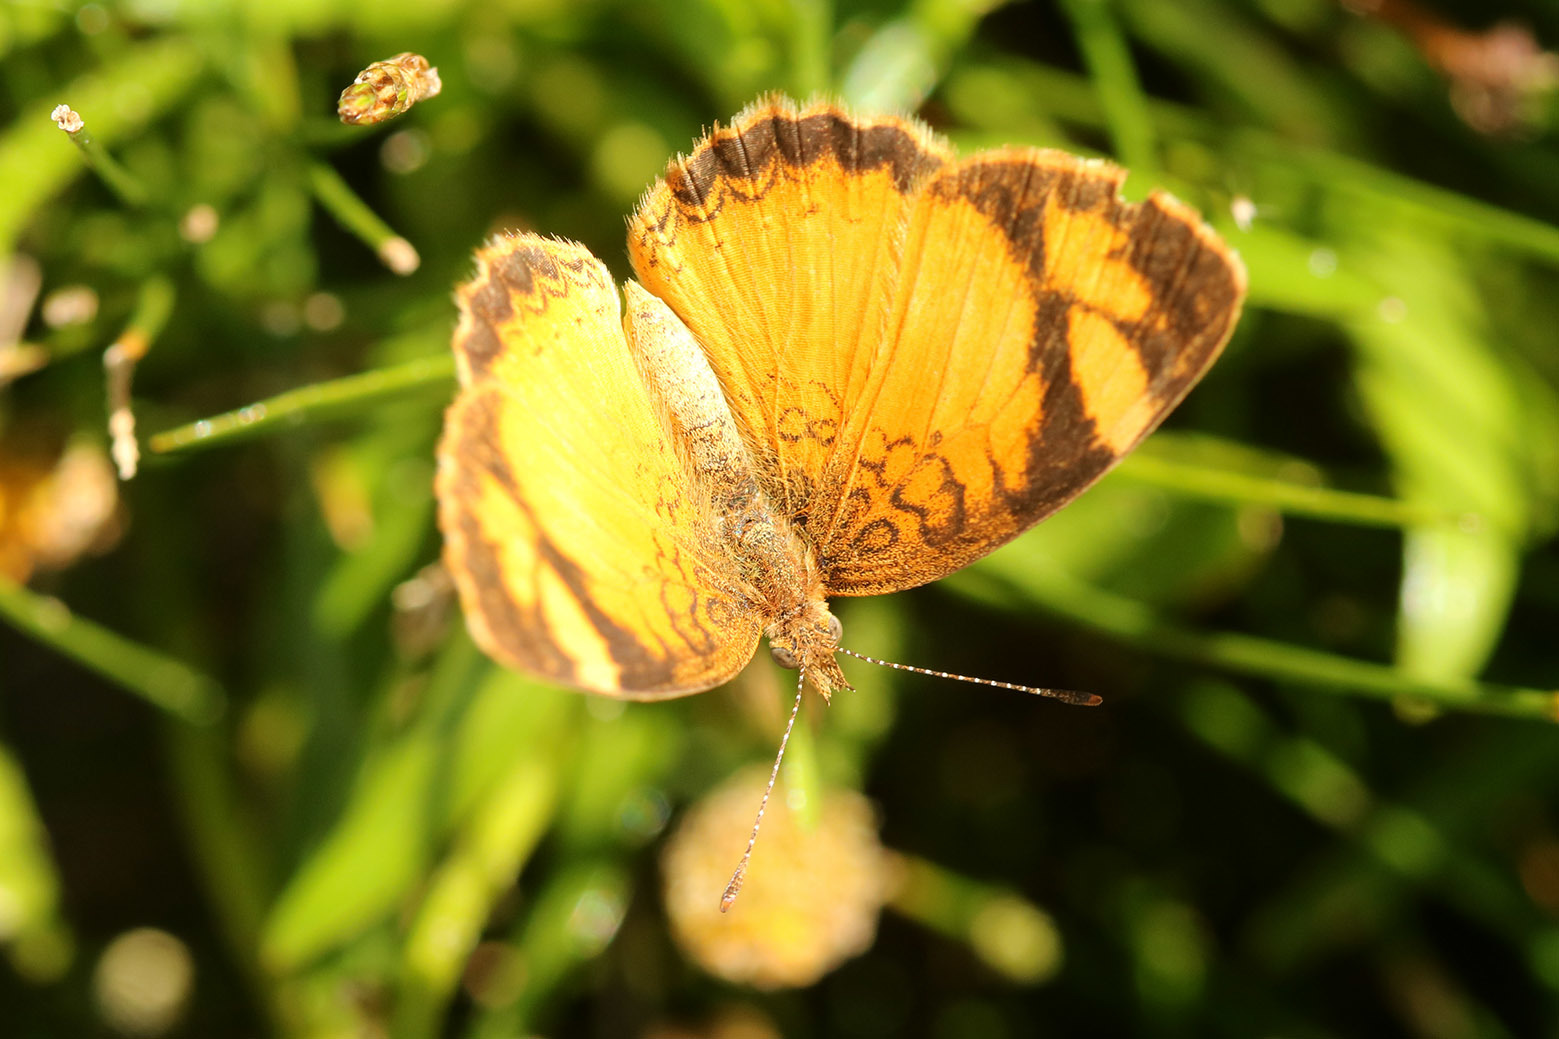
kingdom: Animalia
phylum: Arthropoda
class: Insecta
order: Lepidoptera
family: Nymphalidae
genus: Tegosa
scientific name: Tegosa claudina
